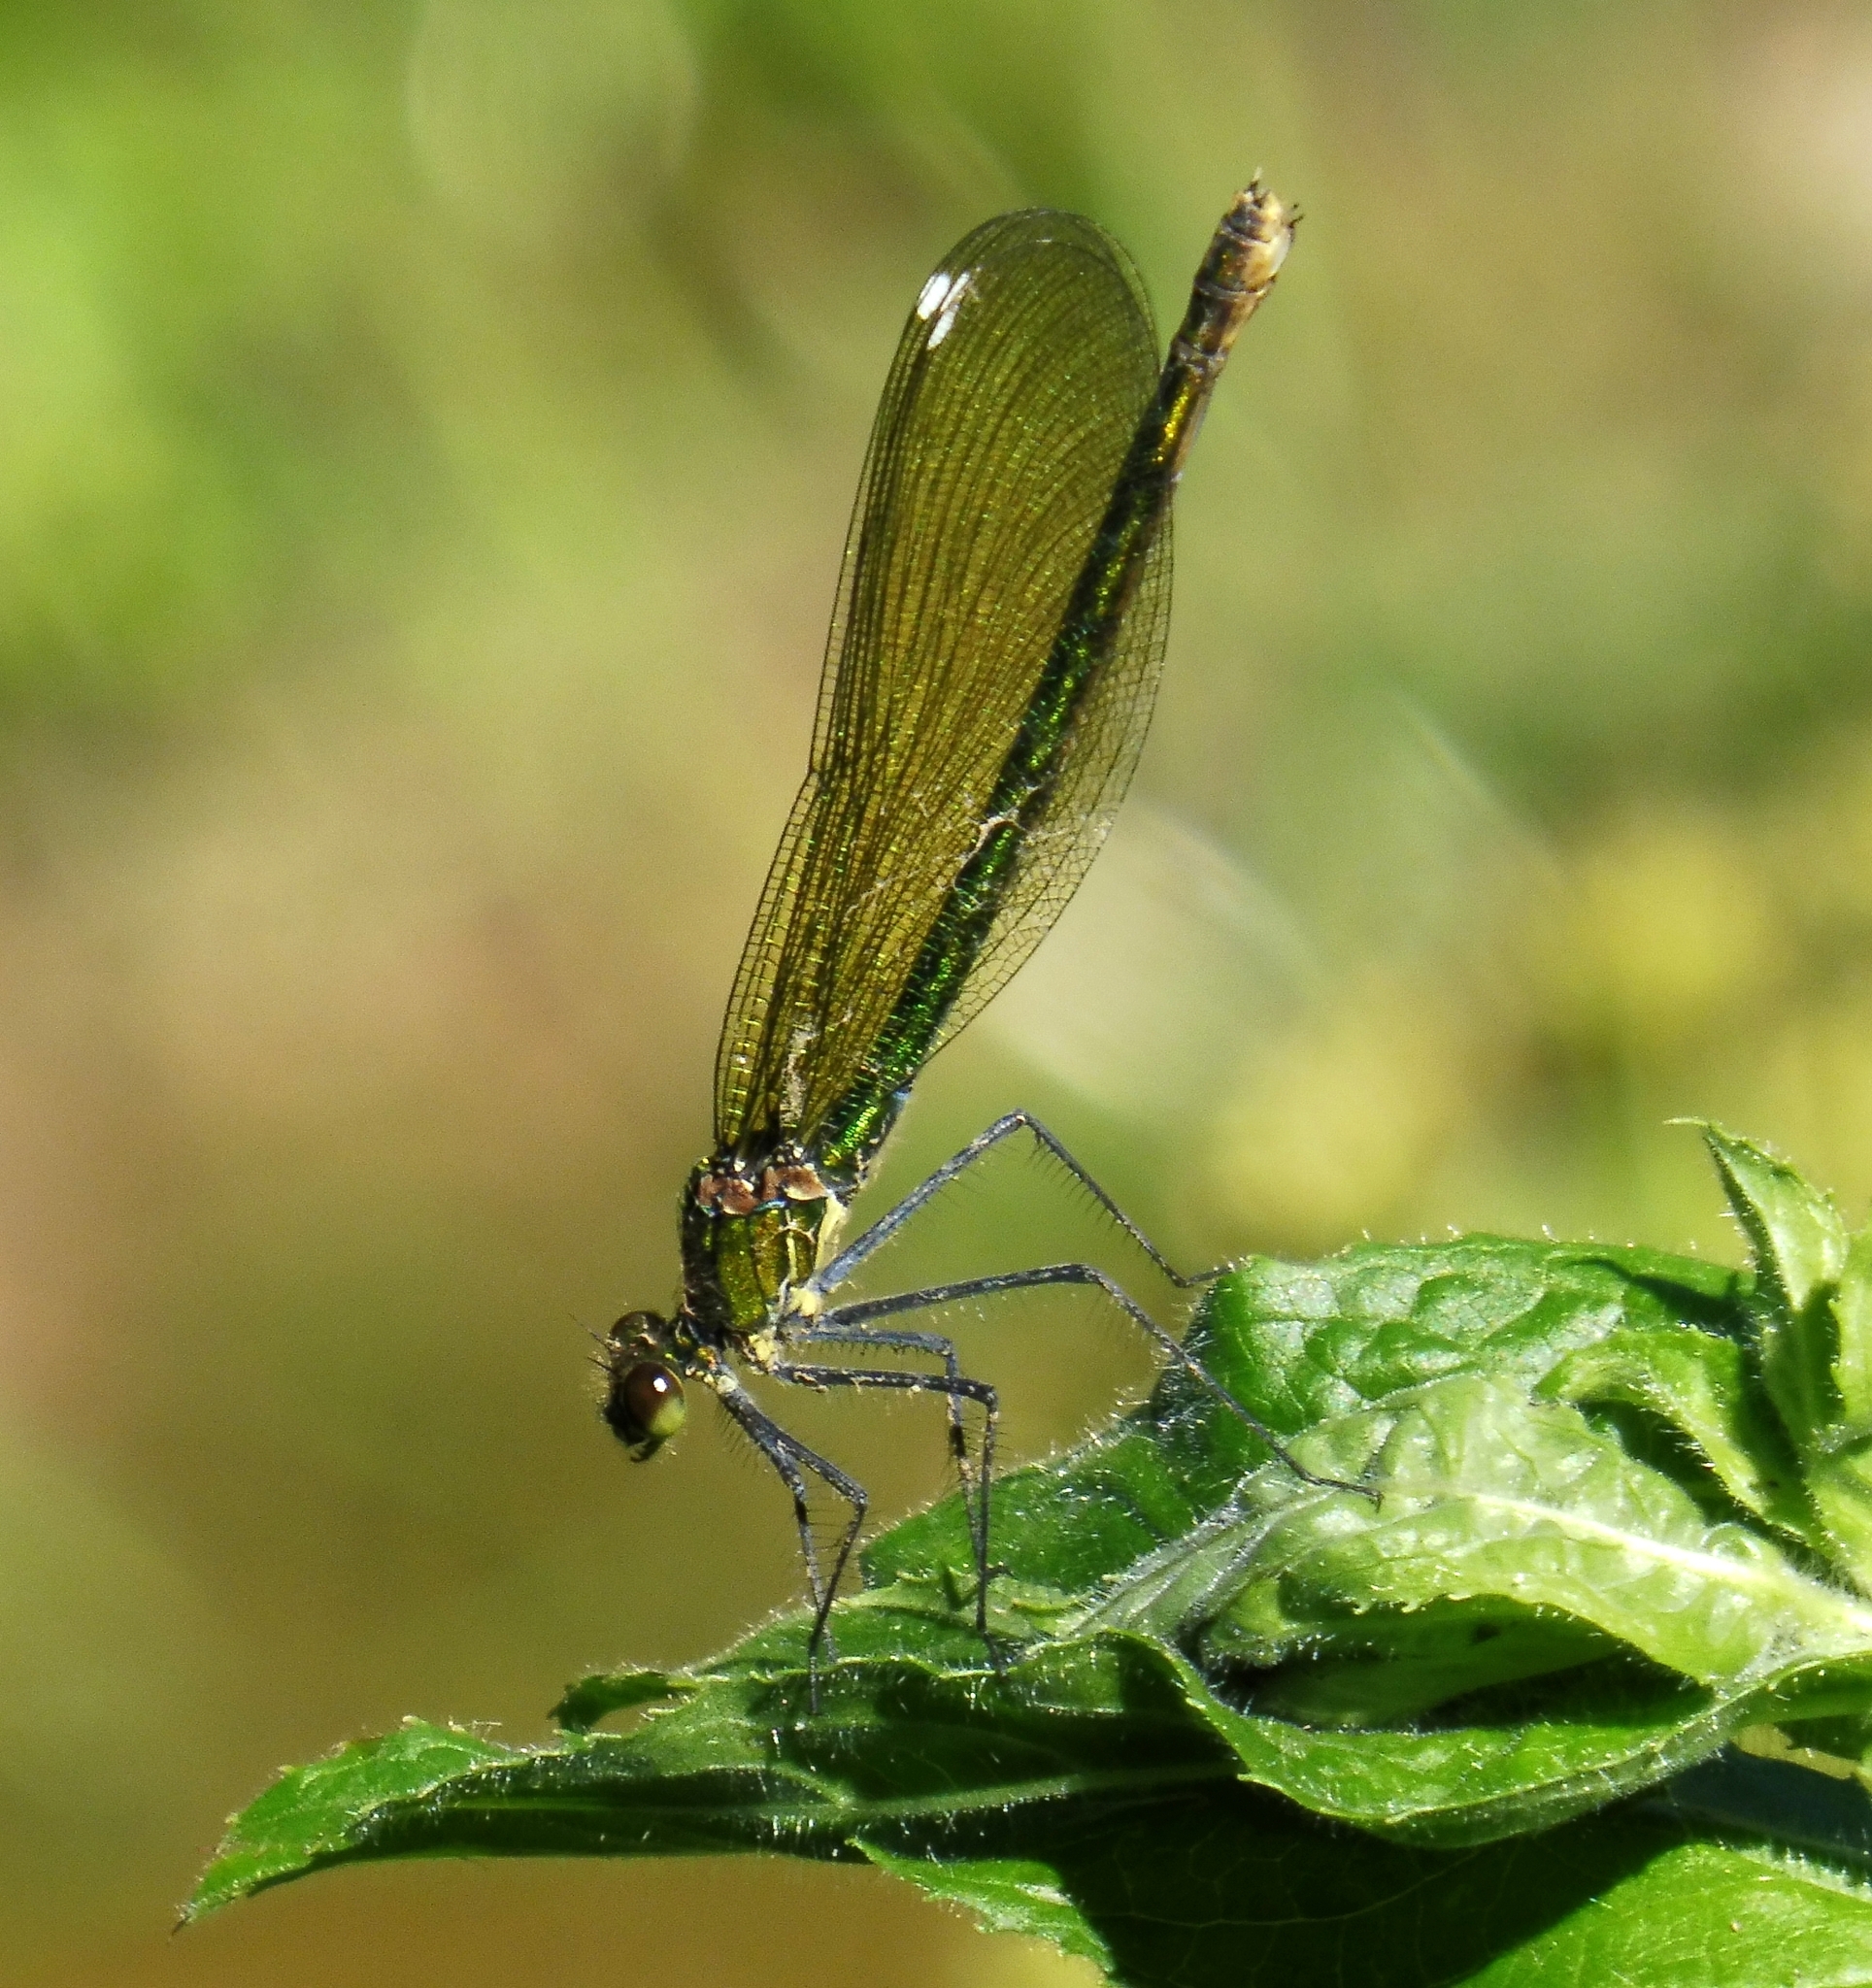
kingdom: Animalia
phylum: Arthropoda
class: Insecta
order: Odonata
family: Calopterygidae
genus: Calopteryx
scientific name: Calopteryx splendens
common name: Banded demoiselle
